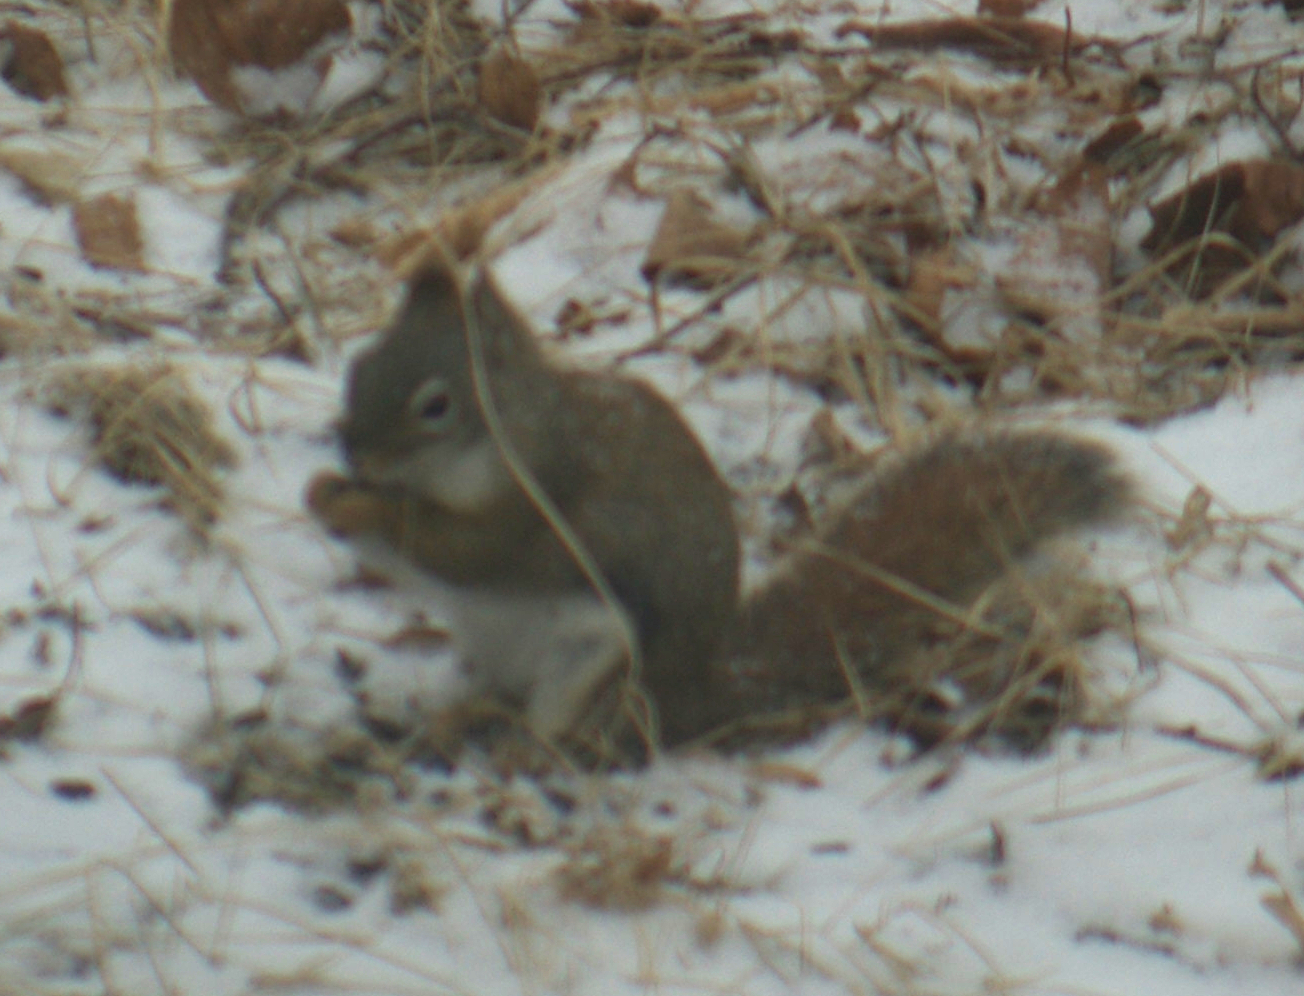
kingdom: Animalia
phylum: Chordata
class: Mammalia
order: Rodentia
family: Sciuridae
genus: Tamiasciurus
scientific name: Tamiasciurus hudsonicus
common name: Red squirrel
